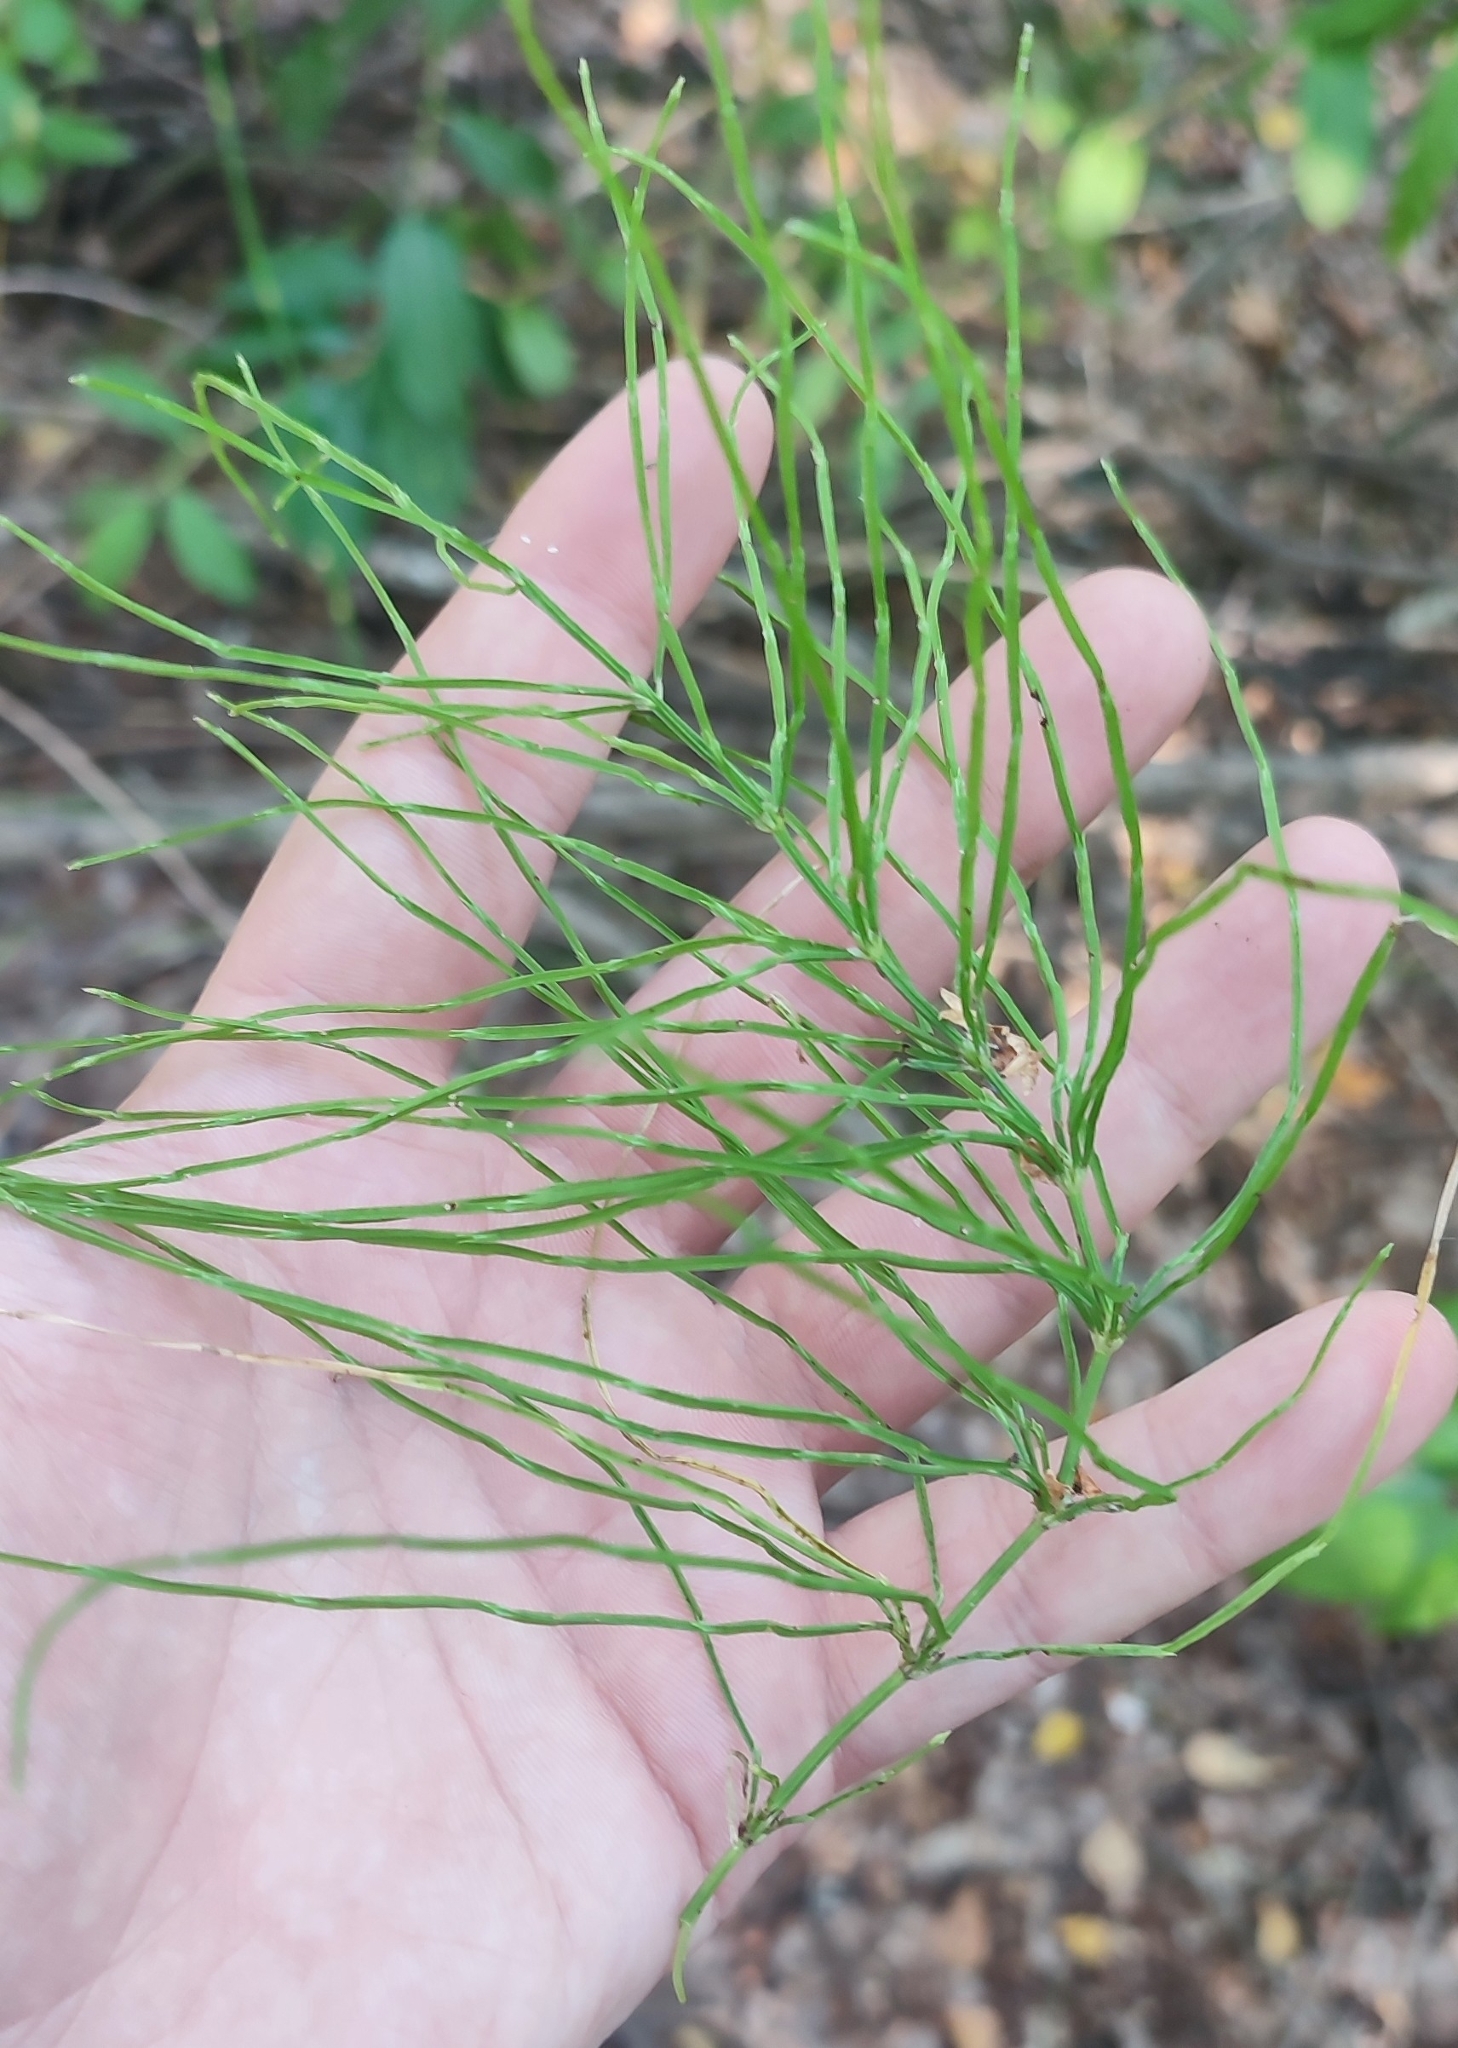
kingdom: Plantae
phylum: Tracheophyta
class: Polypodiopsida
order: Equisetales
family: Equisetaceae
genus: Equisetum
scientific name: Equisetum arvense
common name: Field horsetail
